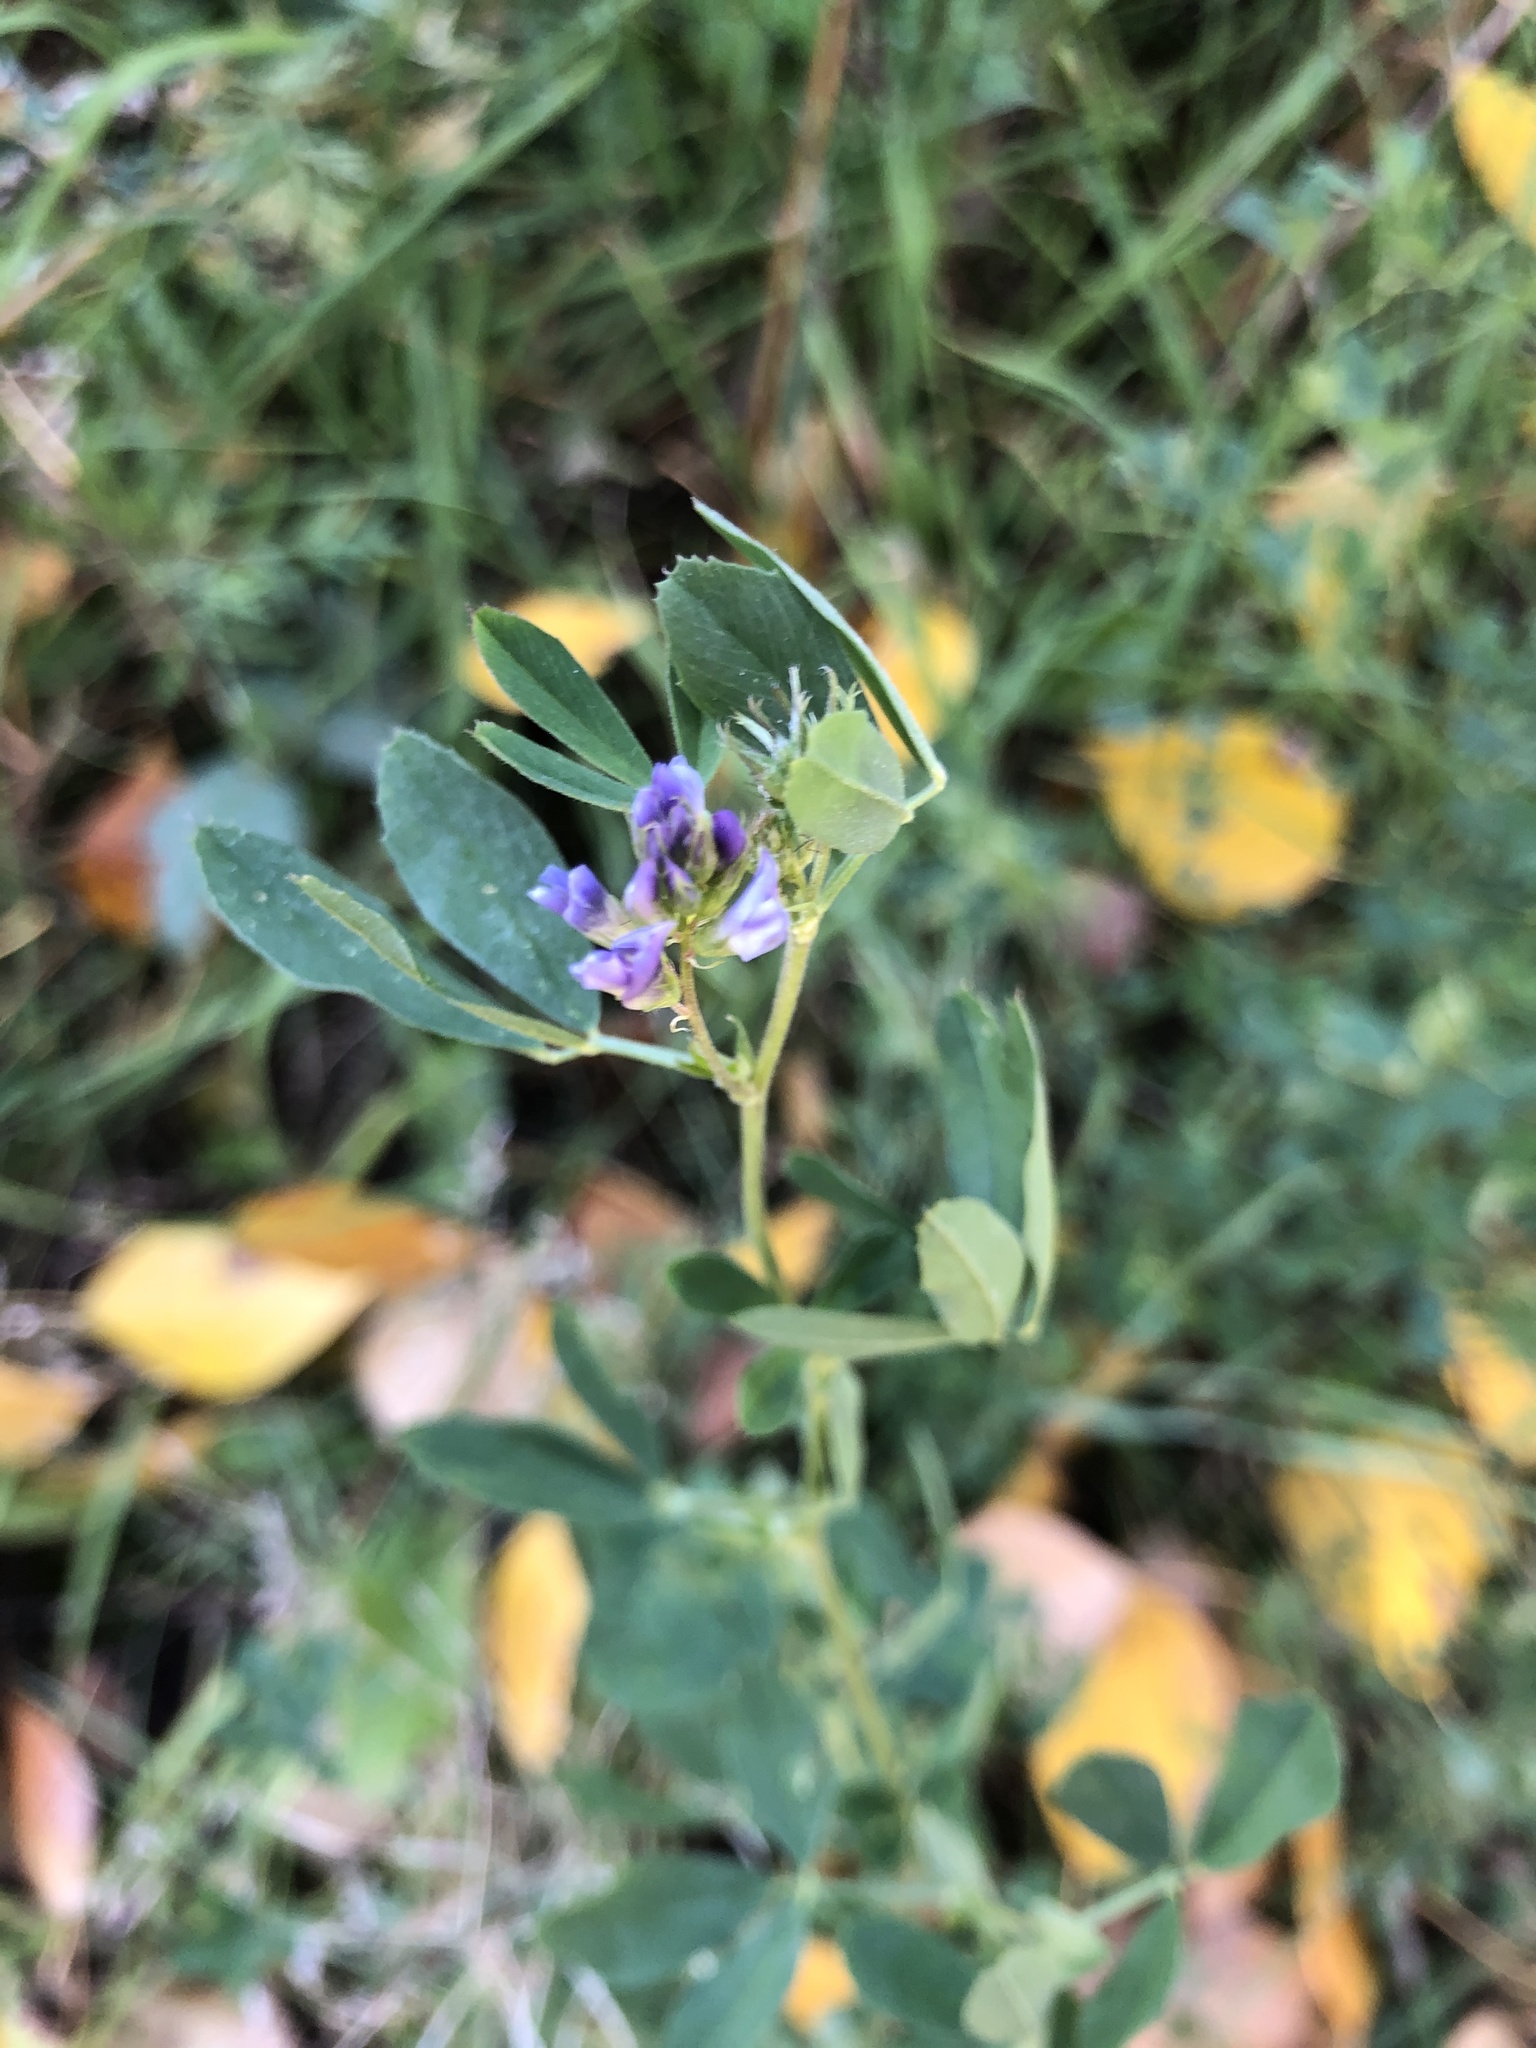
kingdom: Plantae
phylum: Tracheophyta
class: Magnoliopsida
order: Fabales
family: Fabaceae
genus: Medicago
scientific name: Medicago sativa
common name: Alfalfa
